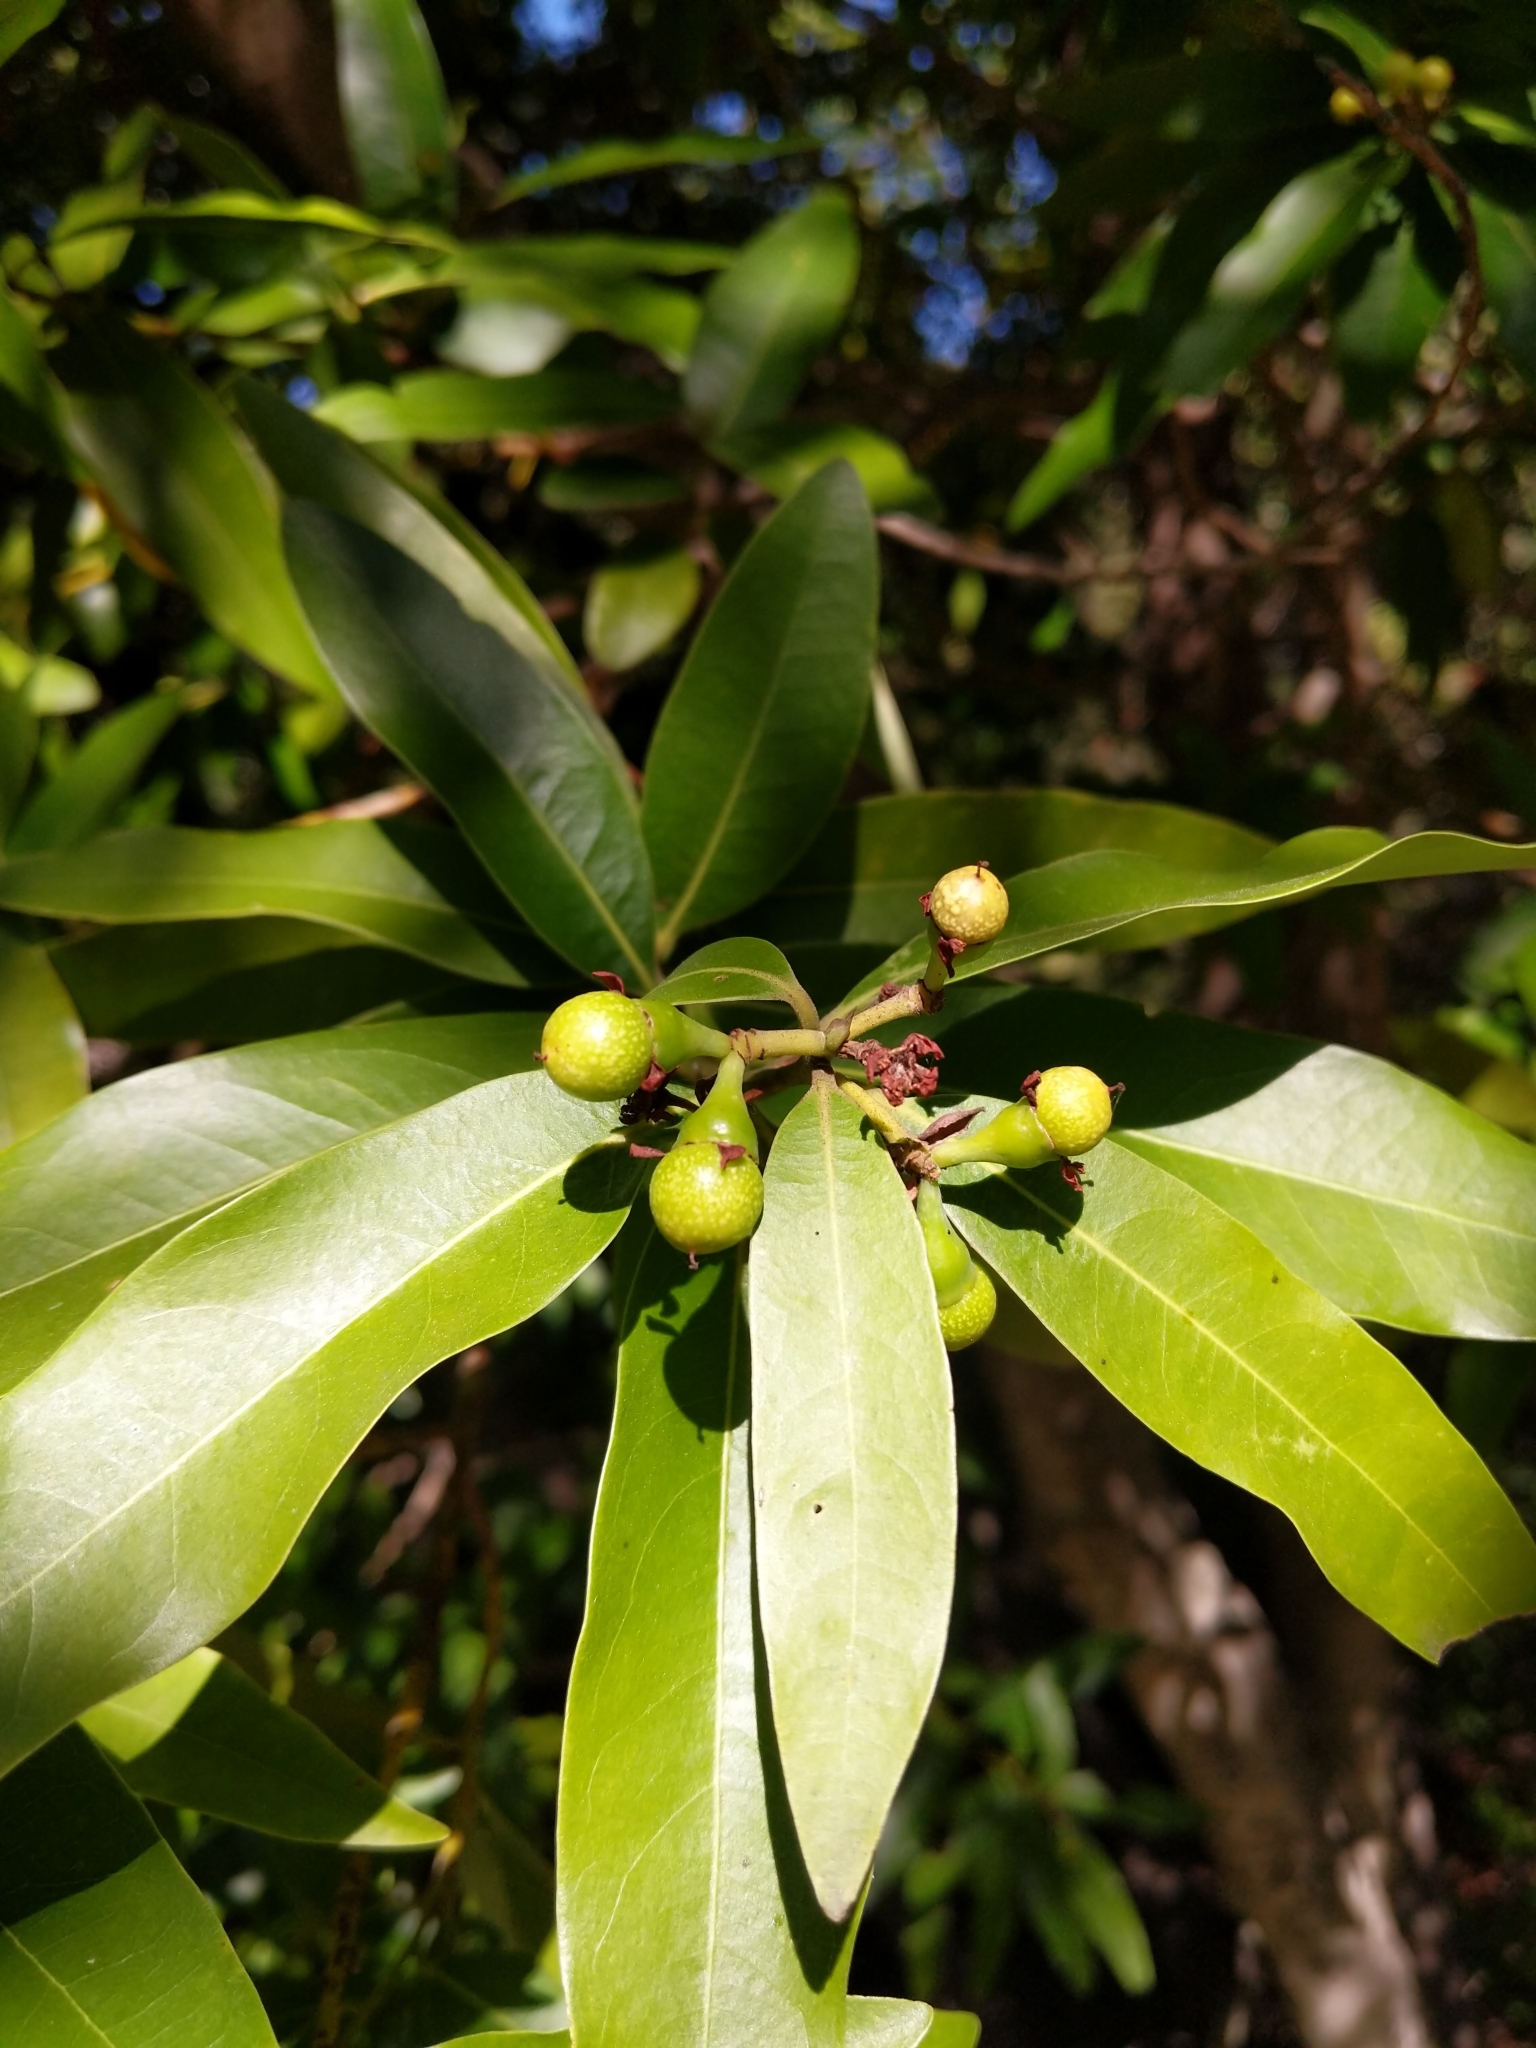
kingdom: Plantae
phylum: Tracheophyta
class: Magnoliopsida
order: Laurales
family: Lauraceae
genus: Umbellularia
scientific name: Umbellularia californica
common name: California bay
